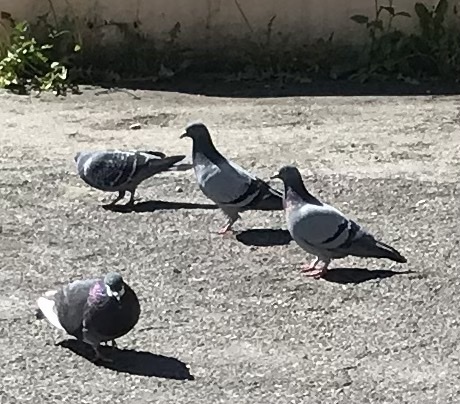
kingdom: Animalia
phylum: Chordata
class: Aves
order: Columbiformes
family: Columbidae
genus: Columba
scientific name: Columba livia
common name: Rock pigeon
